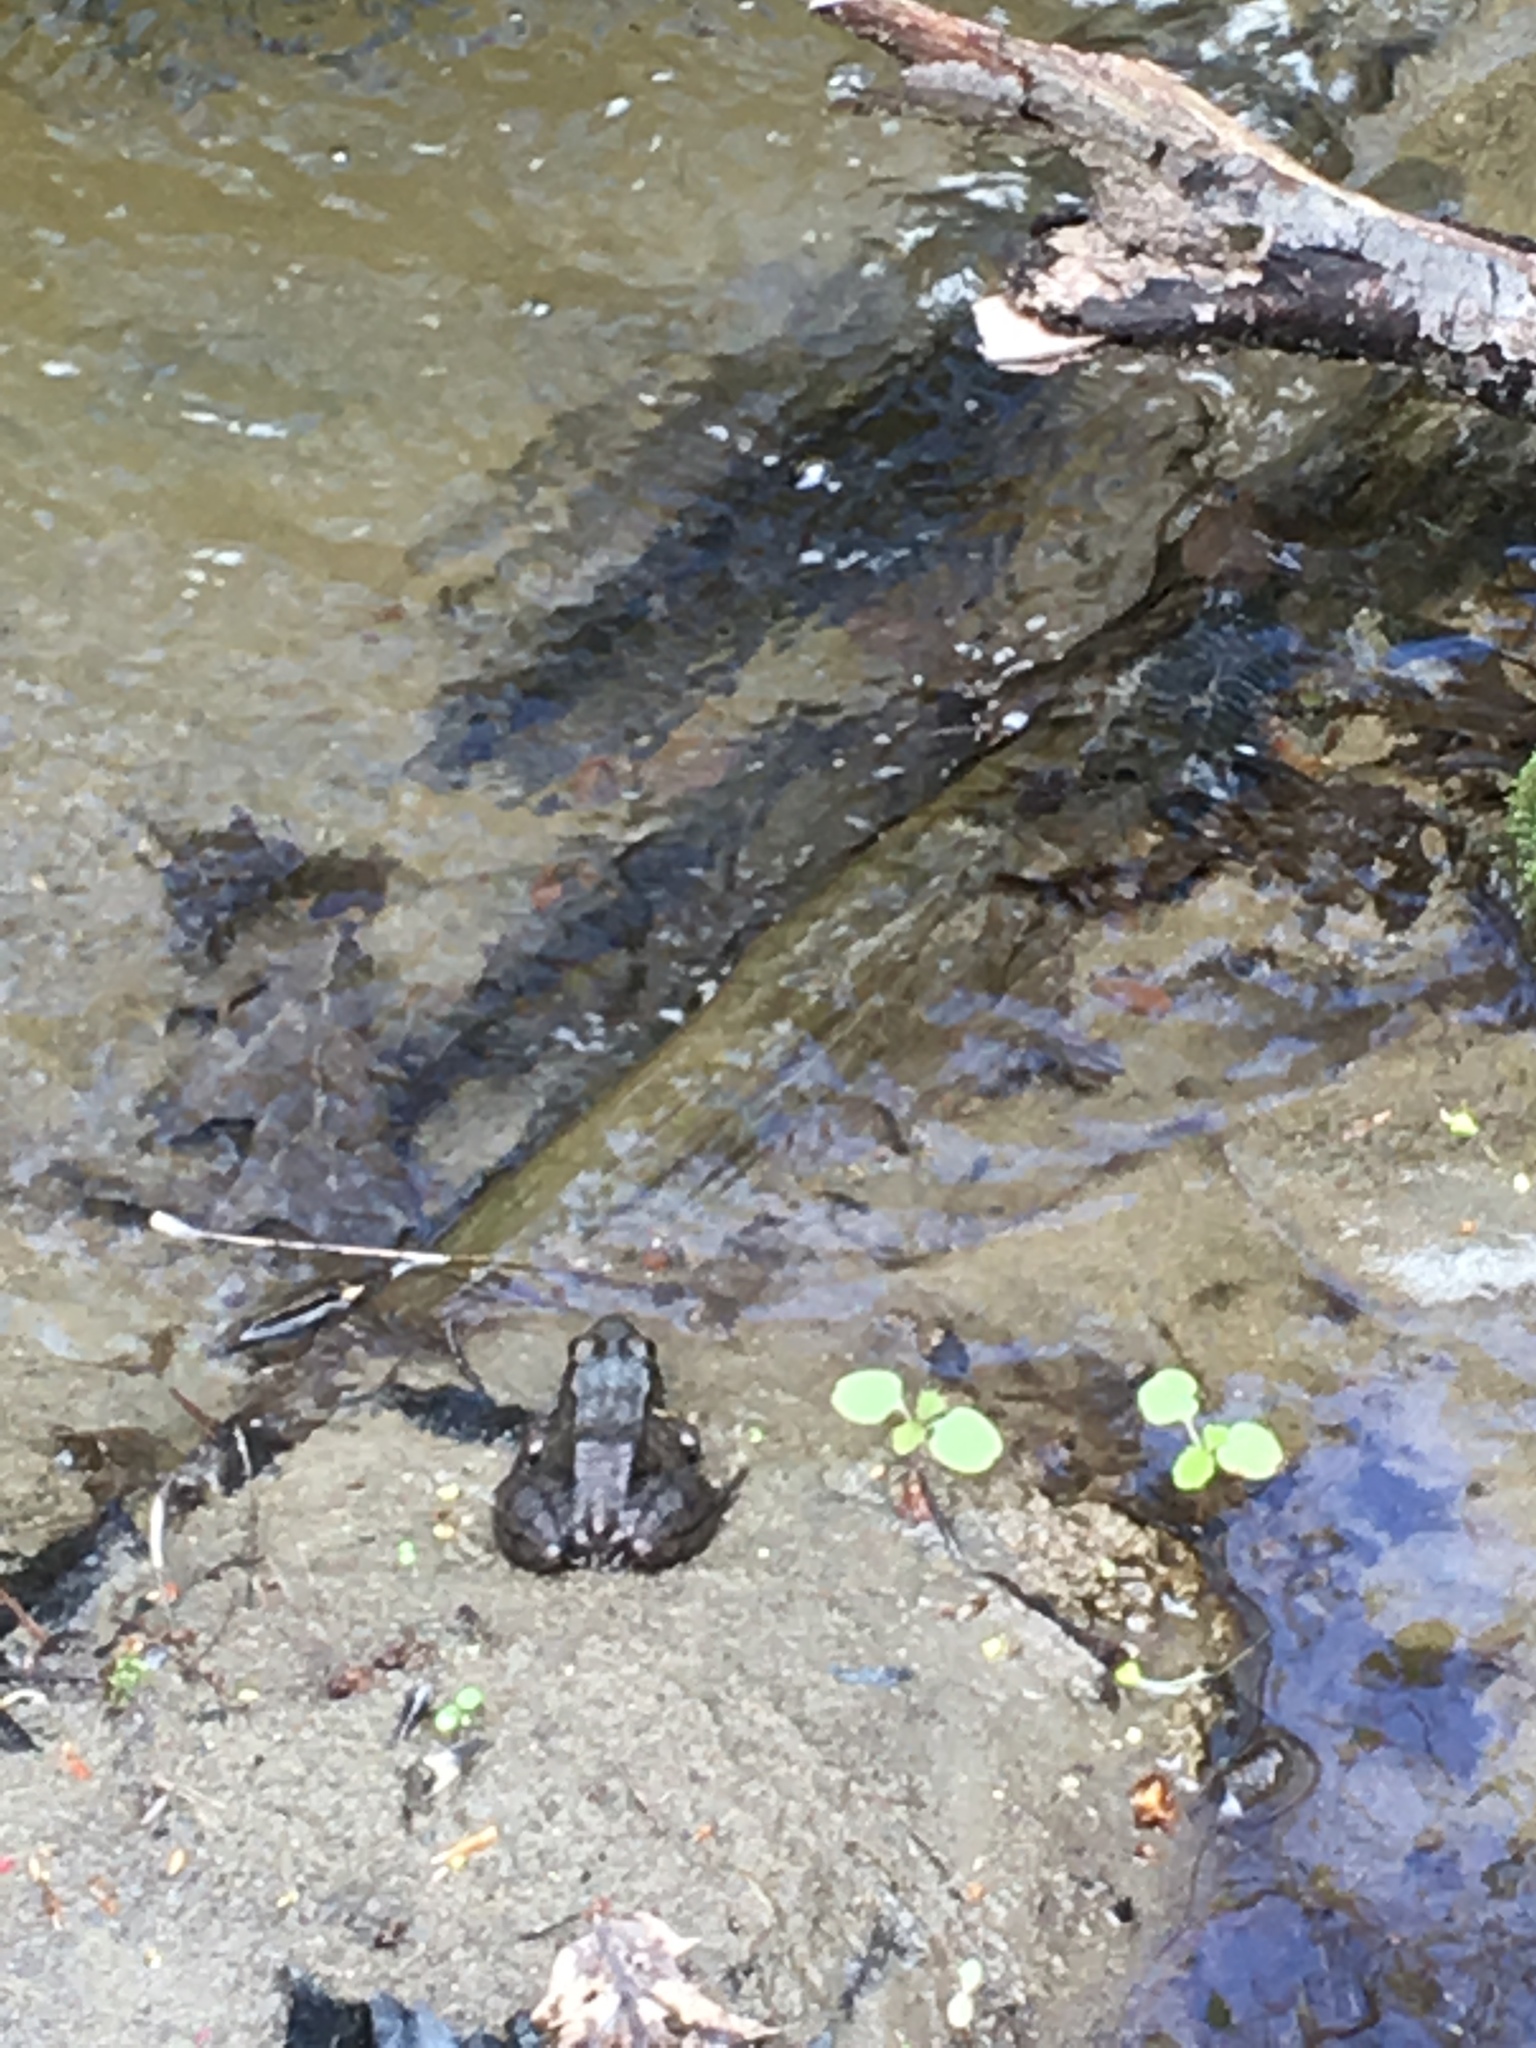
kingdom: Animalia
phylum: Chordata
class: Amphibia
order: Anura
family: Ranidae
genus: Lithobates
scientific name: Lithobates sylvaticus
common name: Wood frog
